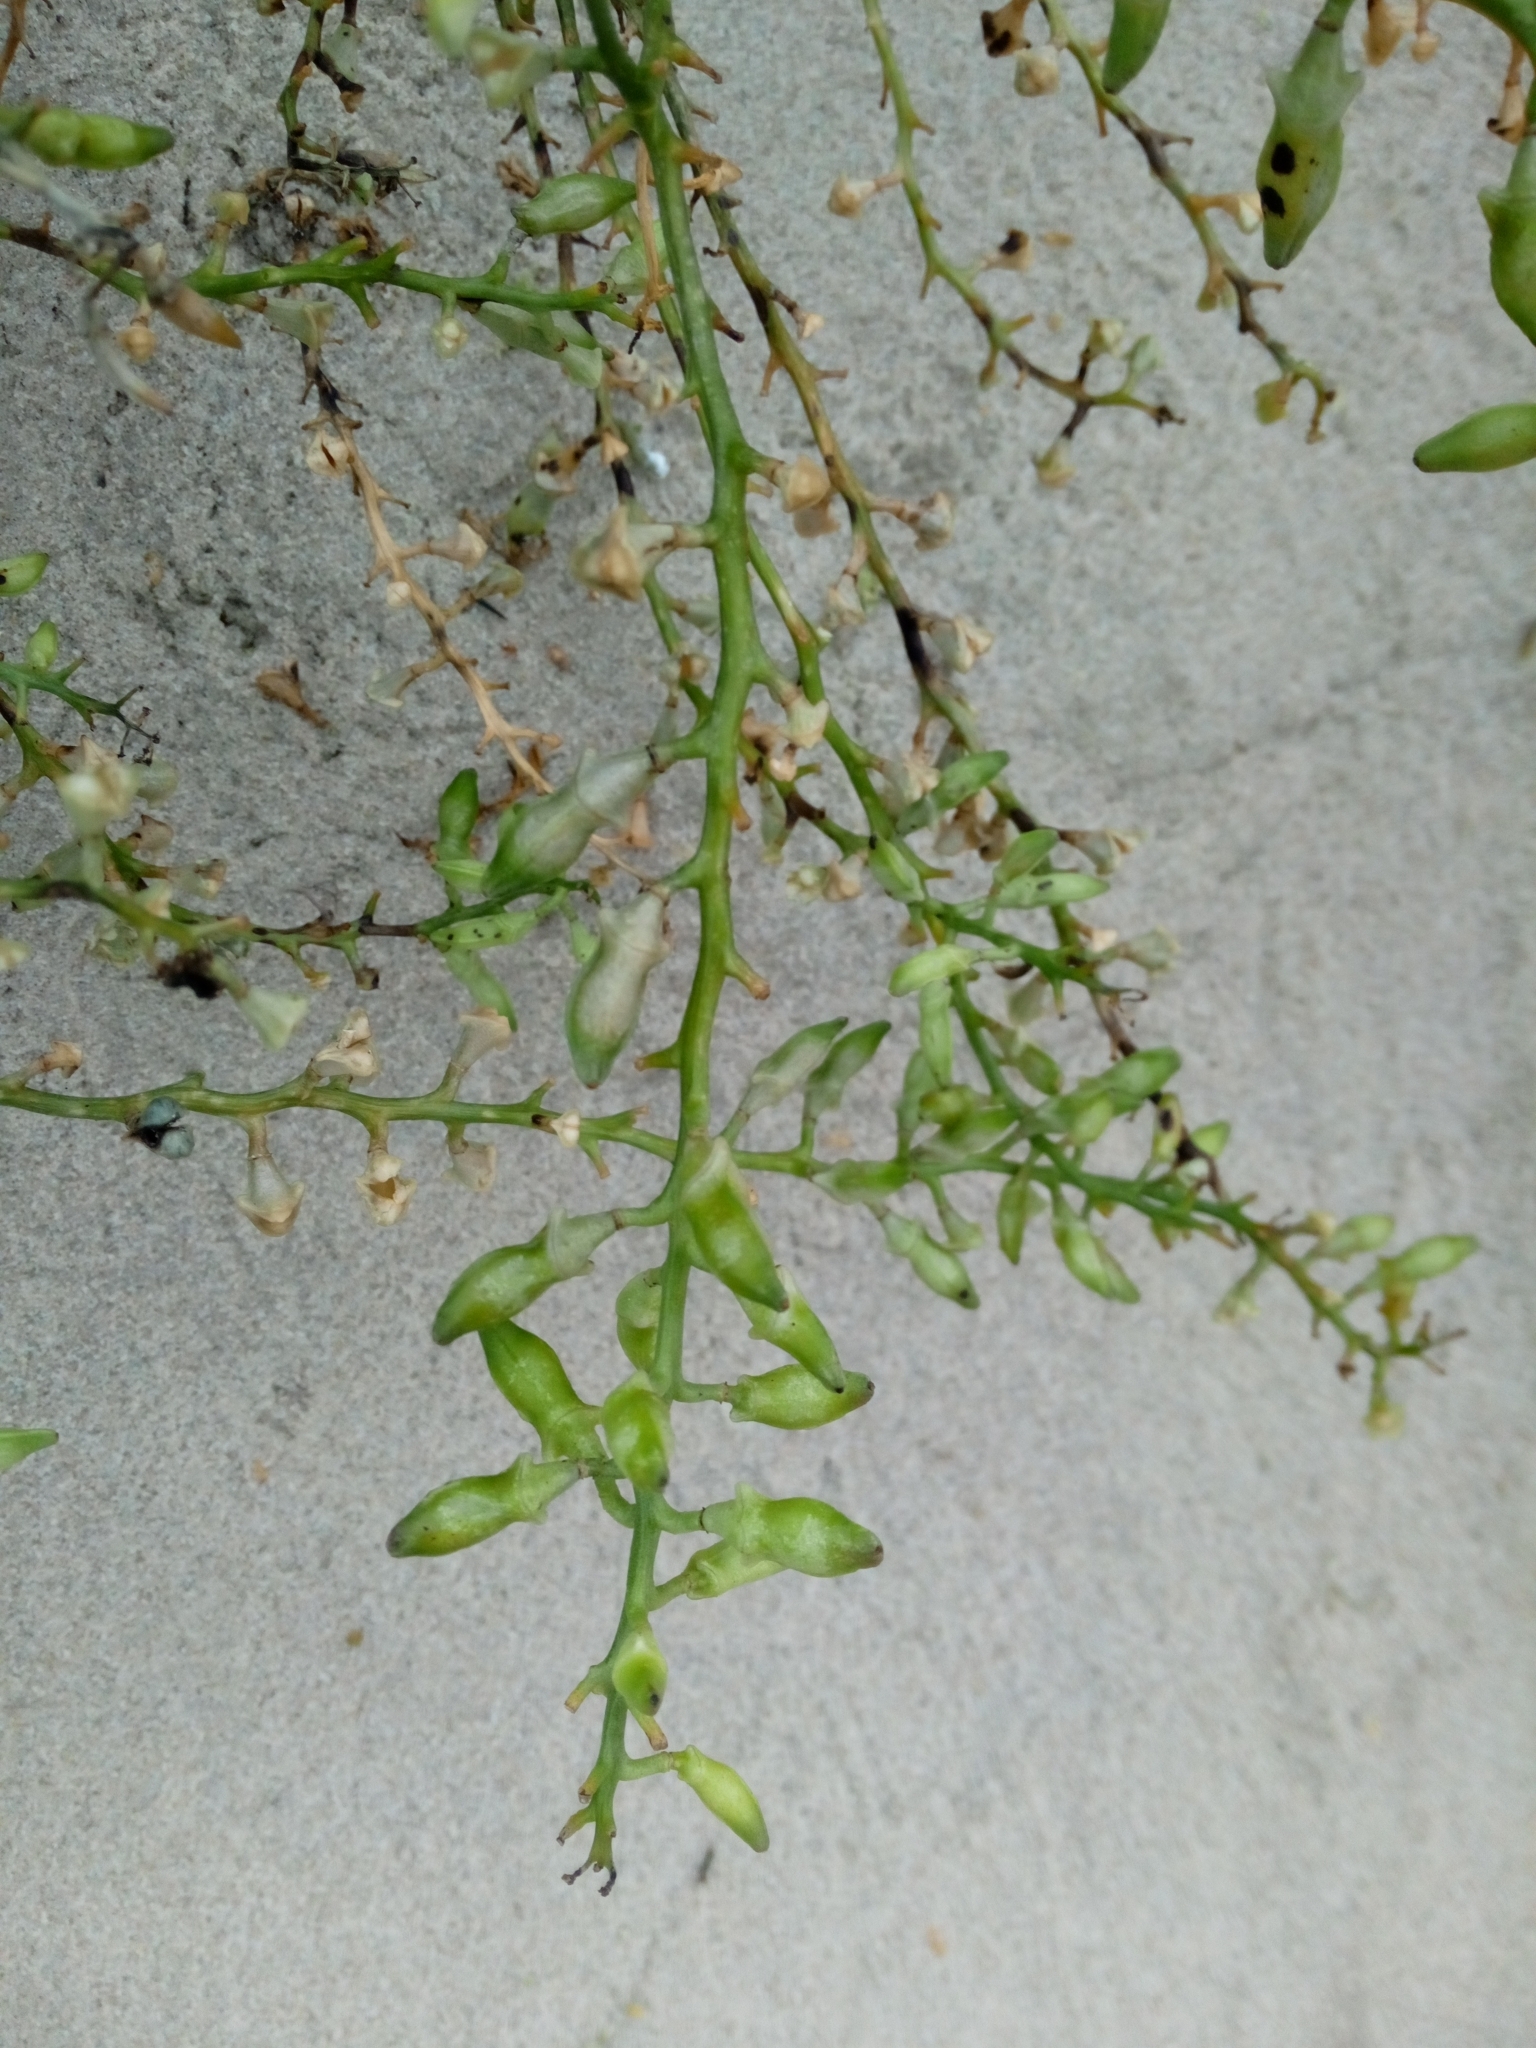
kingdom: Plantae
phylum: Tracheophyta
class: Magnoliopsida
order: Brassicales
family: Brassicaceae
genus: Cakile
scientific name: Cakile maritima
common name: Sea rocket
